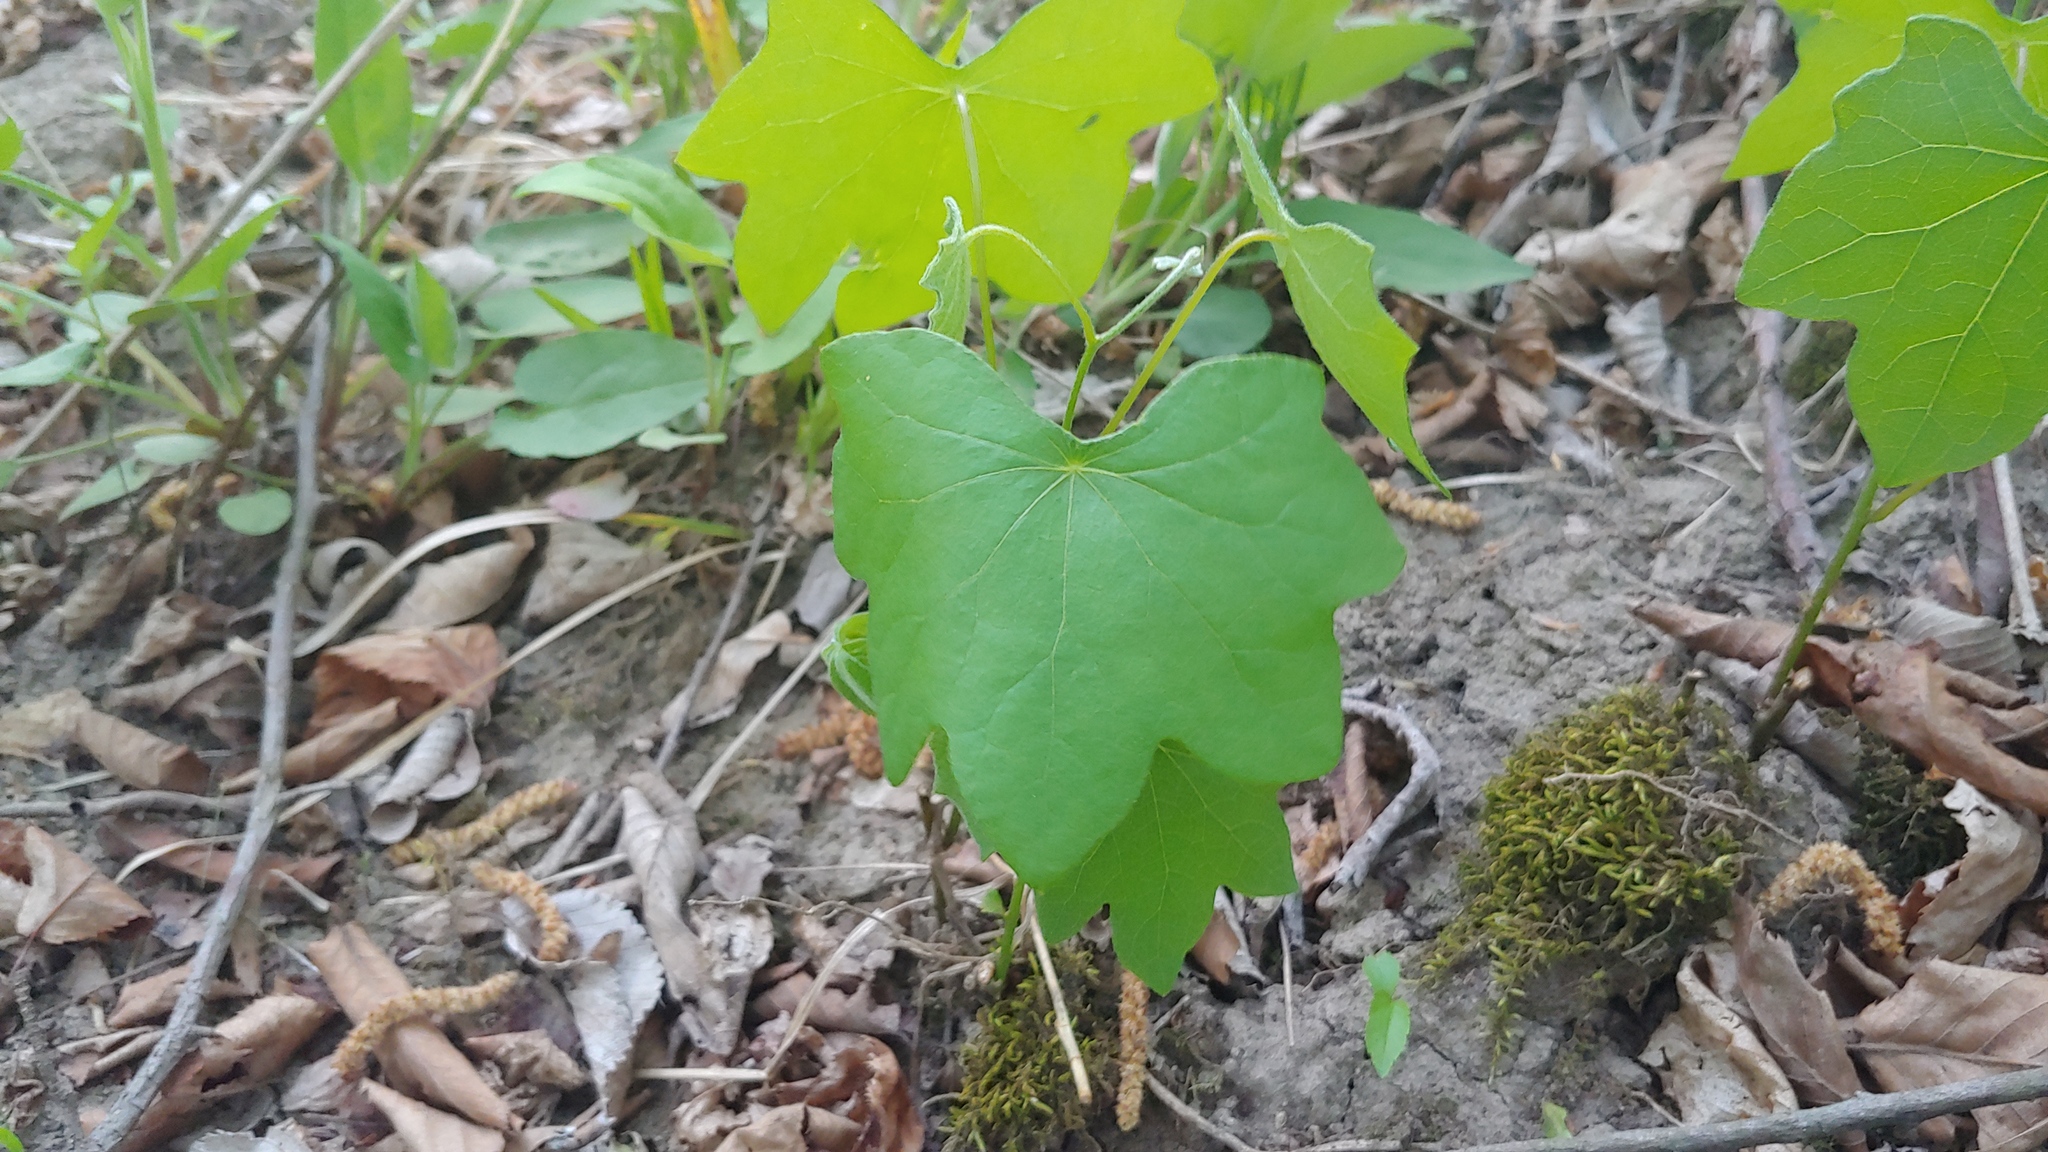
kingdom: Plantae
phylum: Tracheophyta
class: Magnoliopsida
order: Ranunculales
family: Menispermaceae
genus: Menispermum
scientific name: Menispermum canadense
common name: Moonseed
